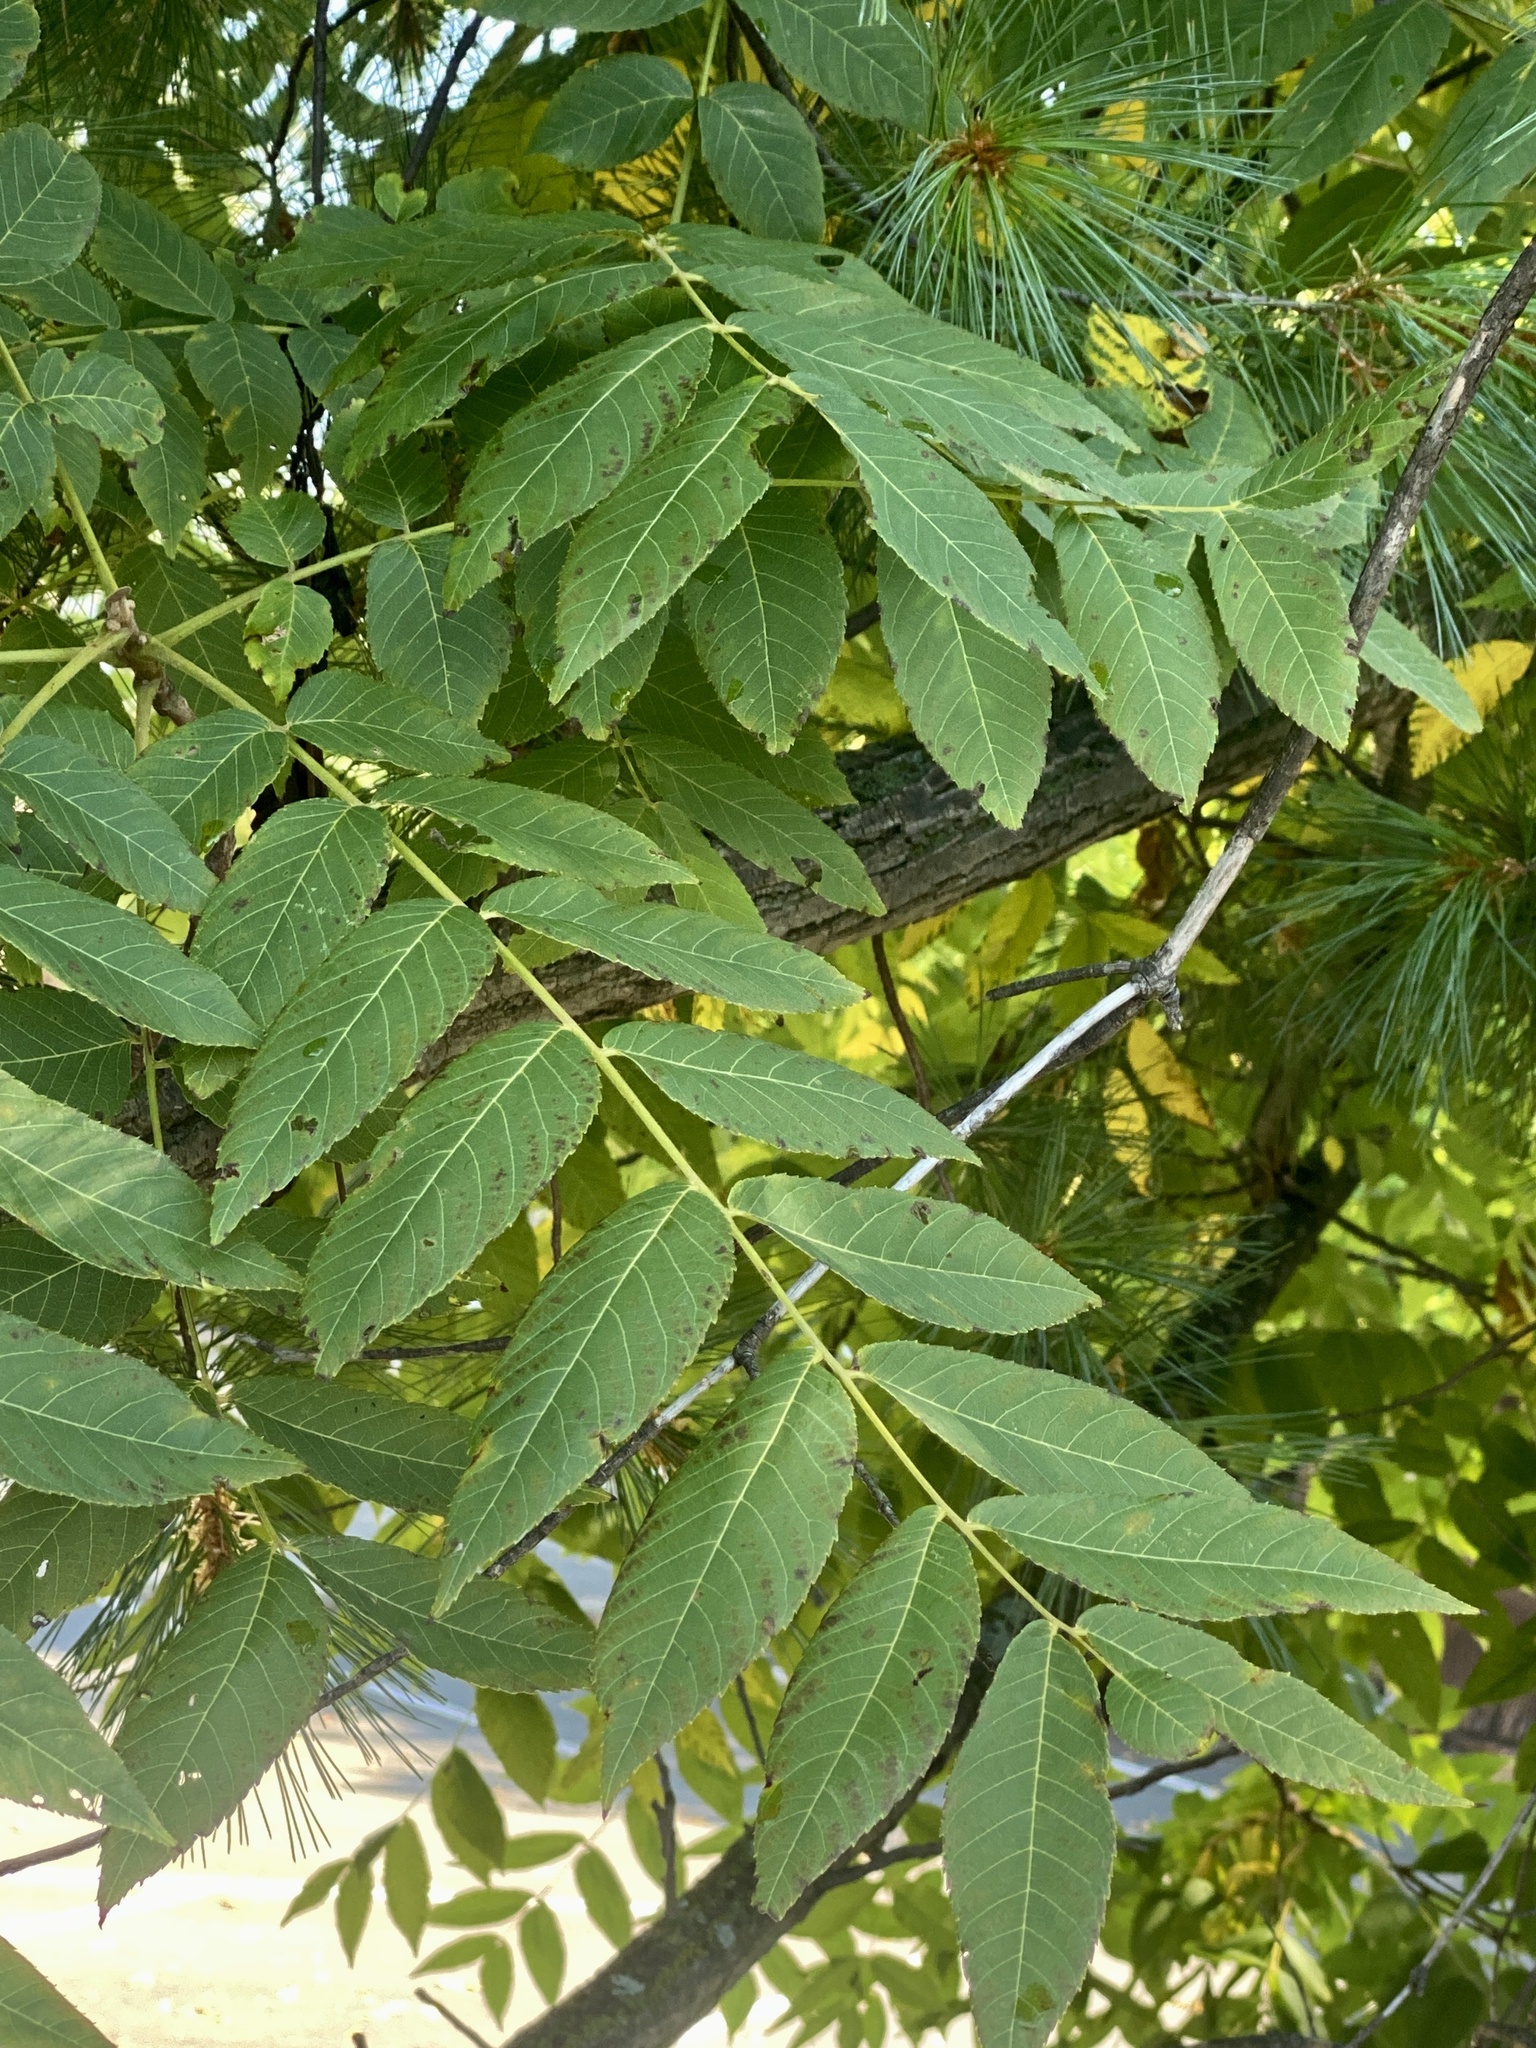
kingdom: Plantae
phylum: Tracheophyta
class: Magnoliopsida
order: Fagales
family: Juglandaceae
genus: Juglans
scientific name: Juglans nigra
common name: Black walnut
